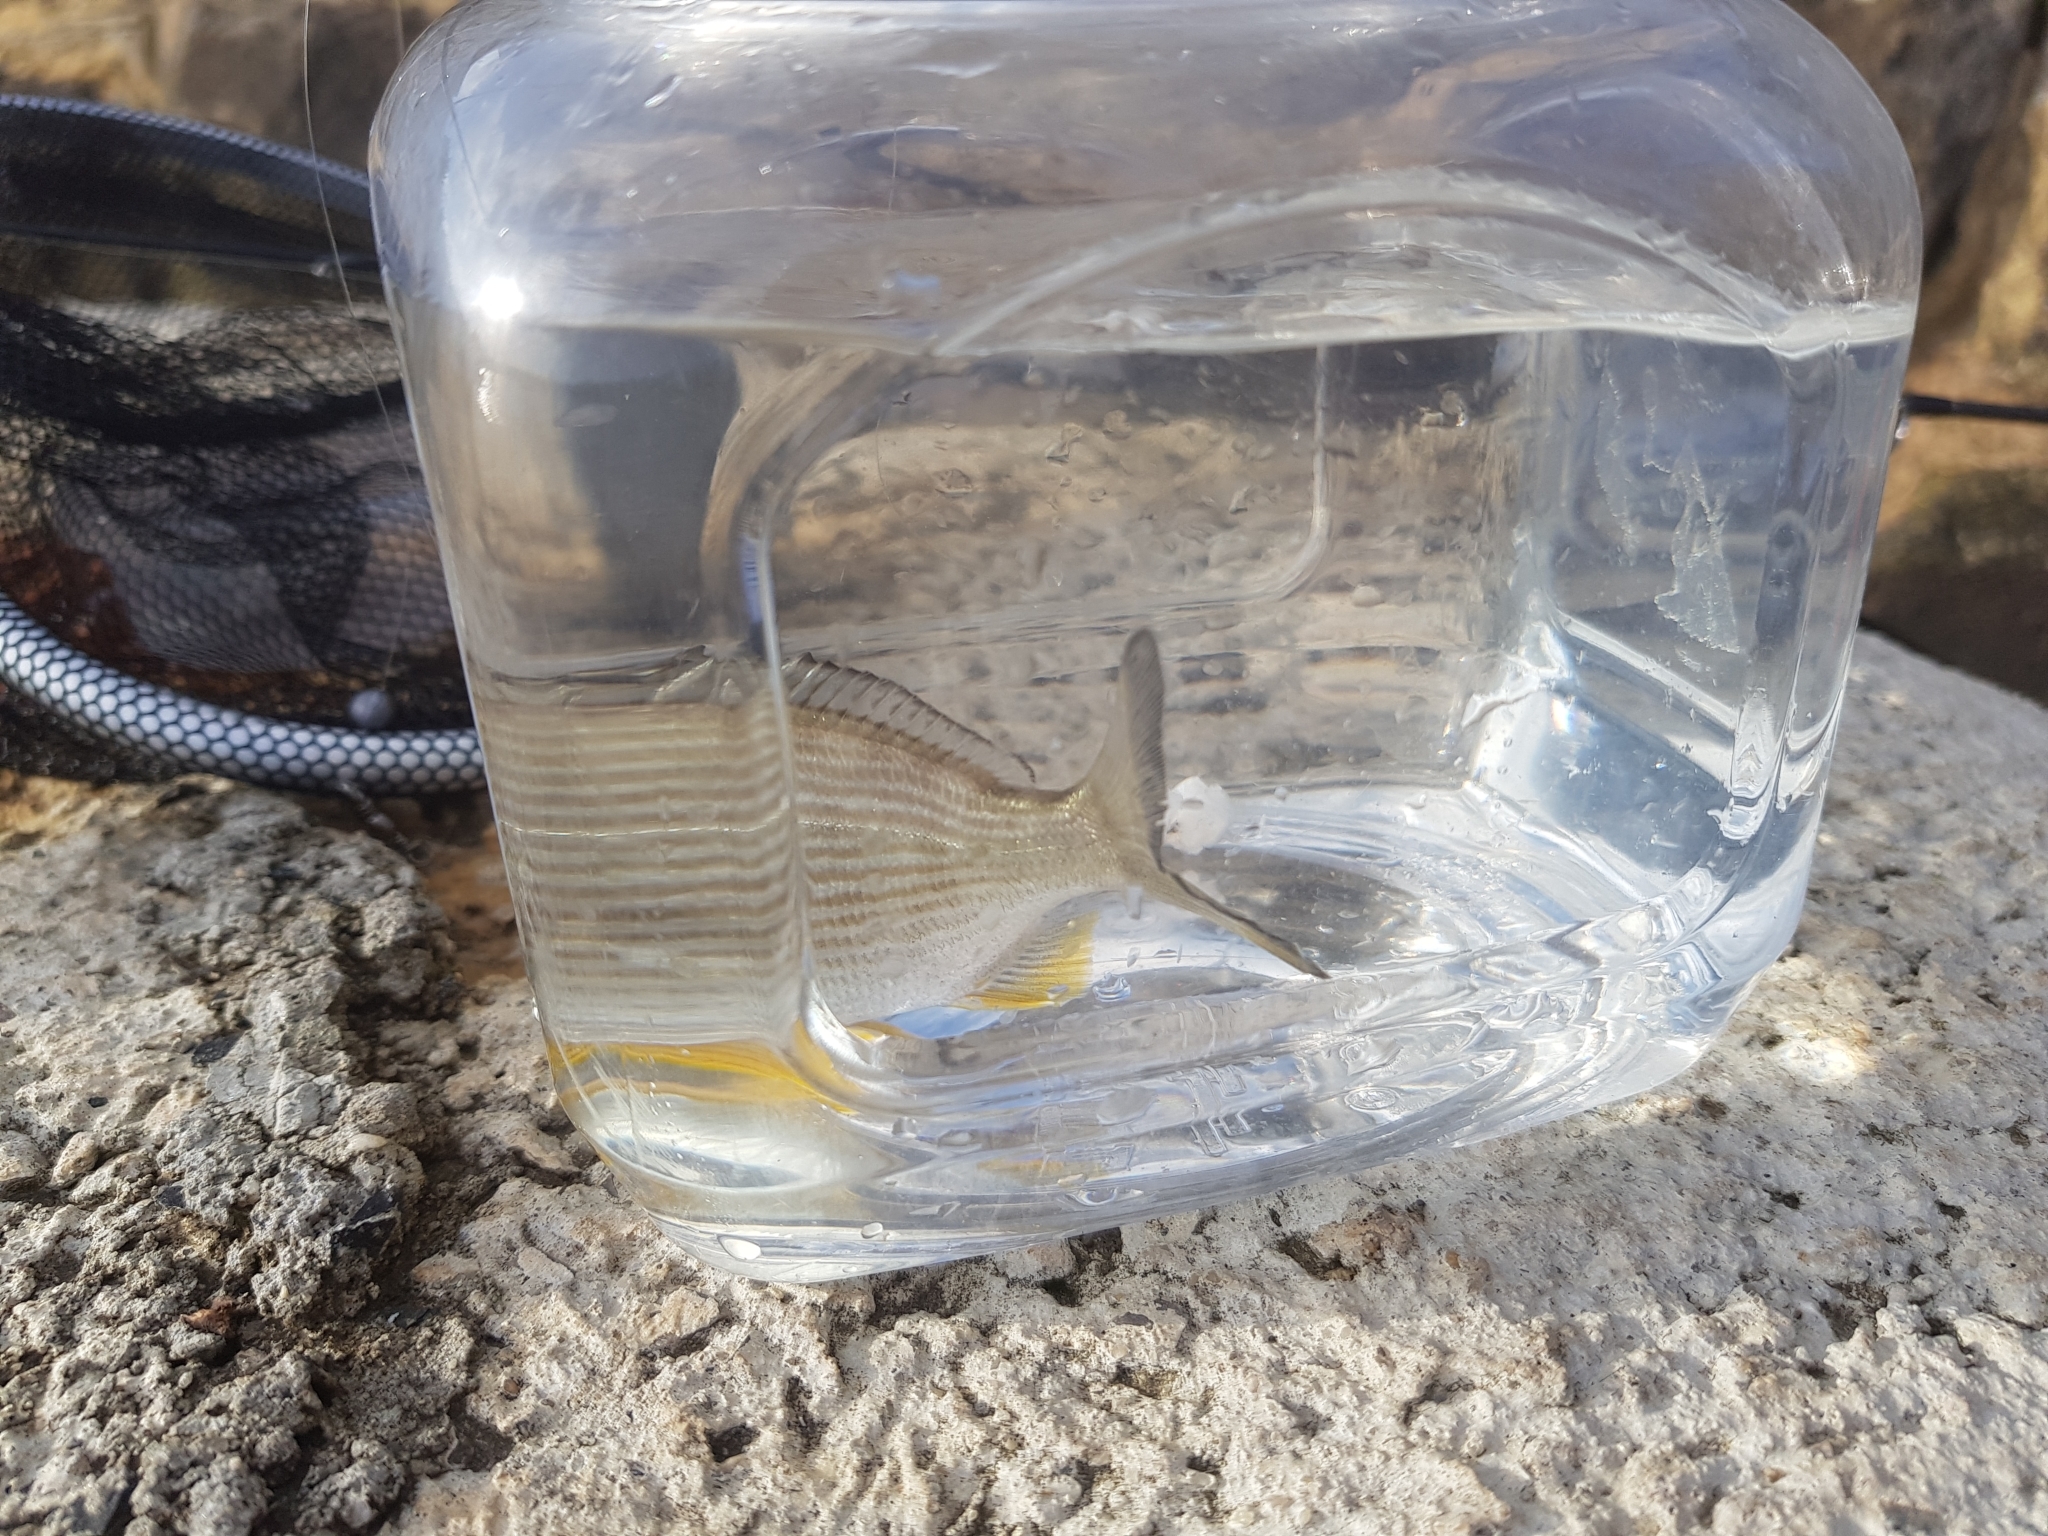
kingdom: Animalia
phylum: Chordata
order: Perciformes
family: Sparidae
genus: Rhabdosargus
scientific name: Rhabdosargus sarba
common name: Goldlined seabream
